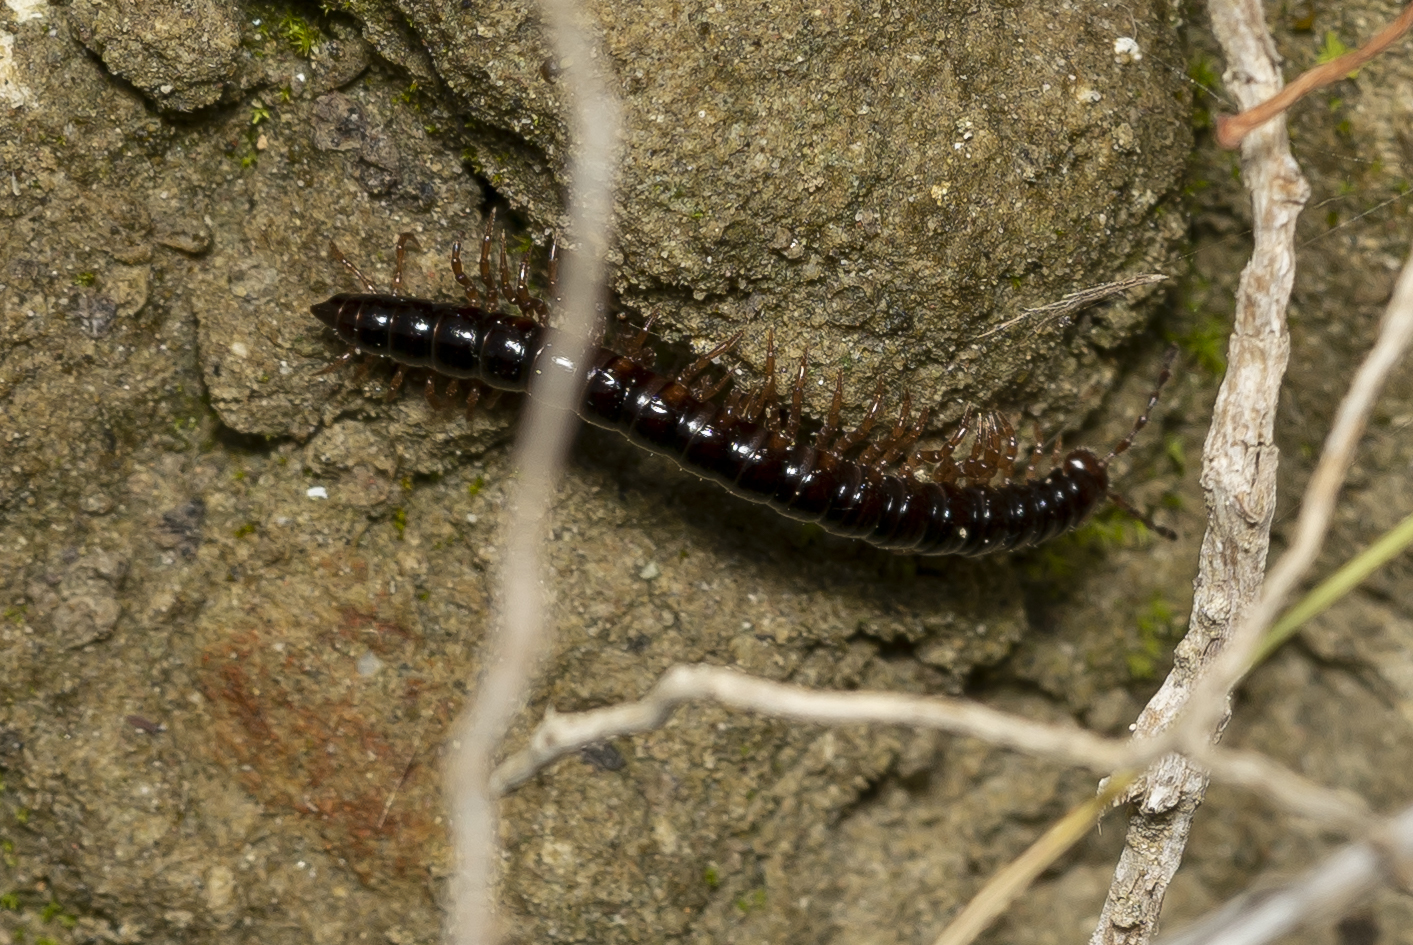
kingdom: Animalia
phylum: Arthropoda
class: Diplopoda
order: Polydesmida
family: Paradoxosomatidae
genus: Tetrarthrosoma
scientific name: Tetrarthrosoma pallidicephalum
